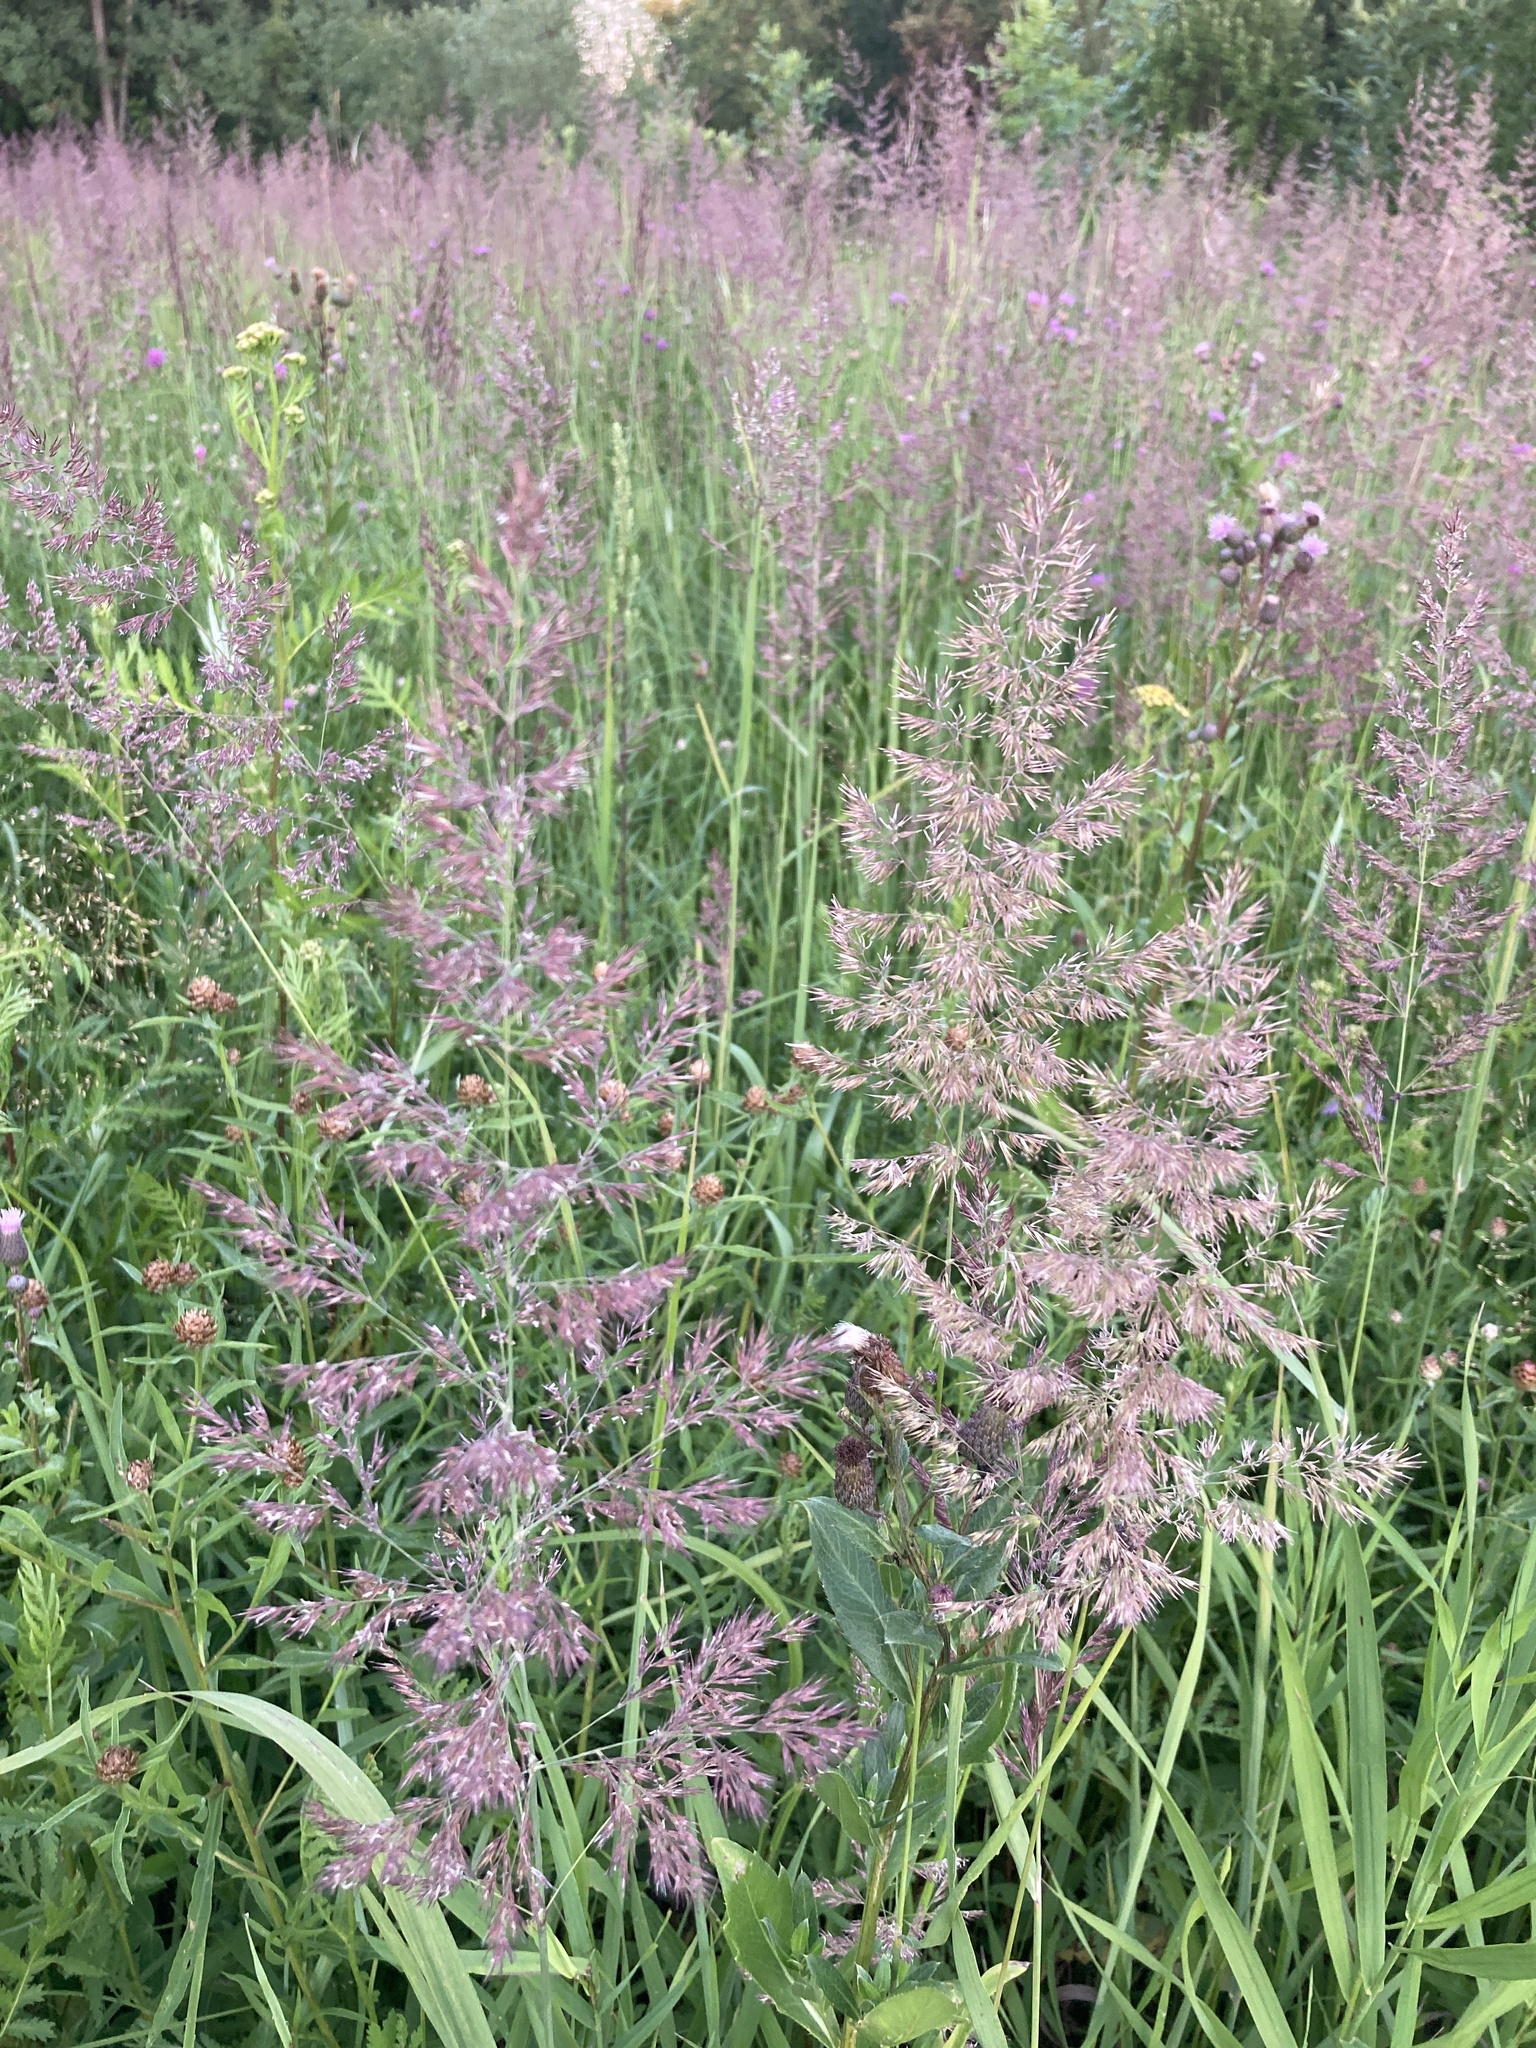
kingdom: Plantae
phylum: Tracheophyta
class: Liliopsida
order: Poales
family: Poaceae
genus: Calamagrostis
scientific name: Calamagrostis epigejos
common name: Wood small-reed
